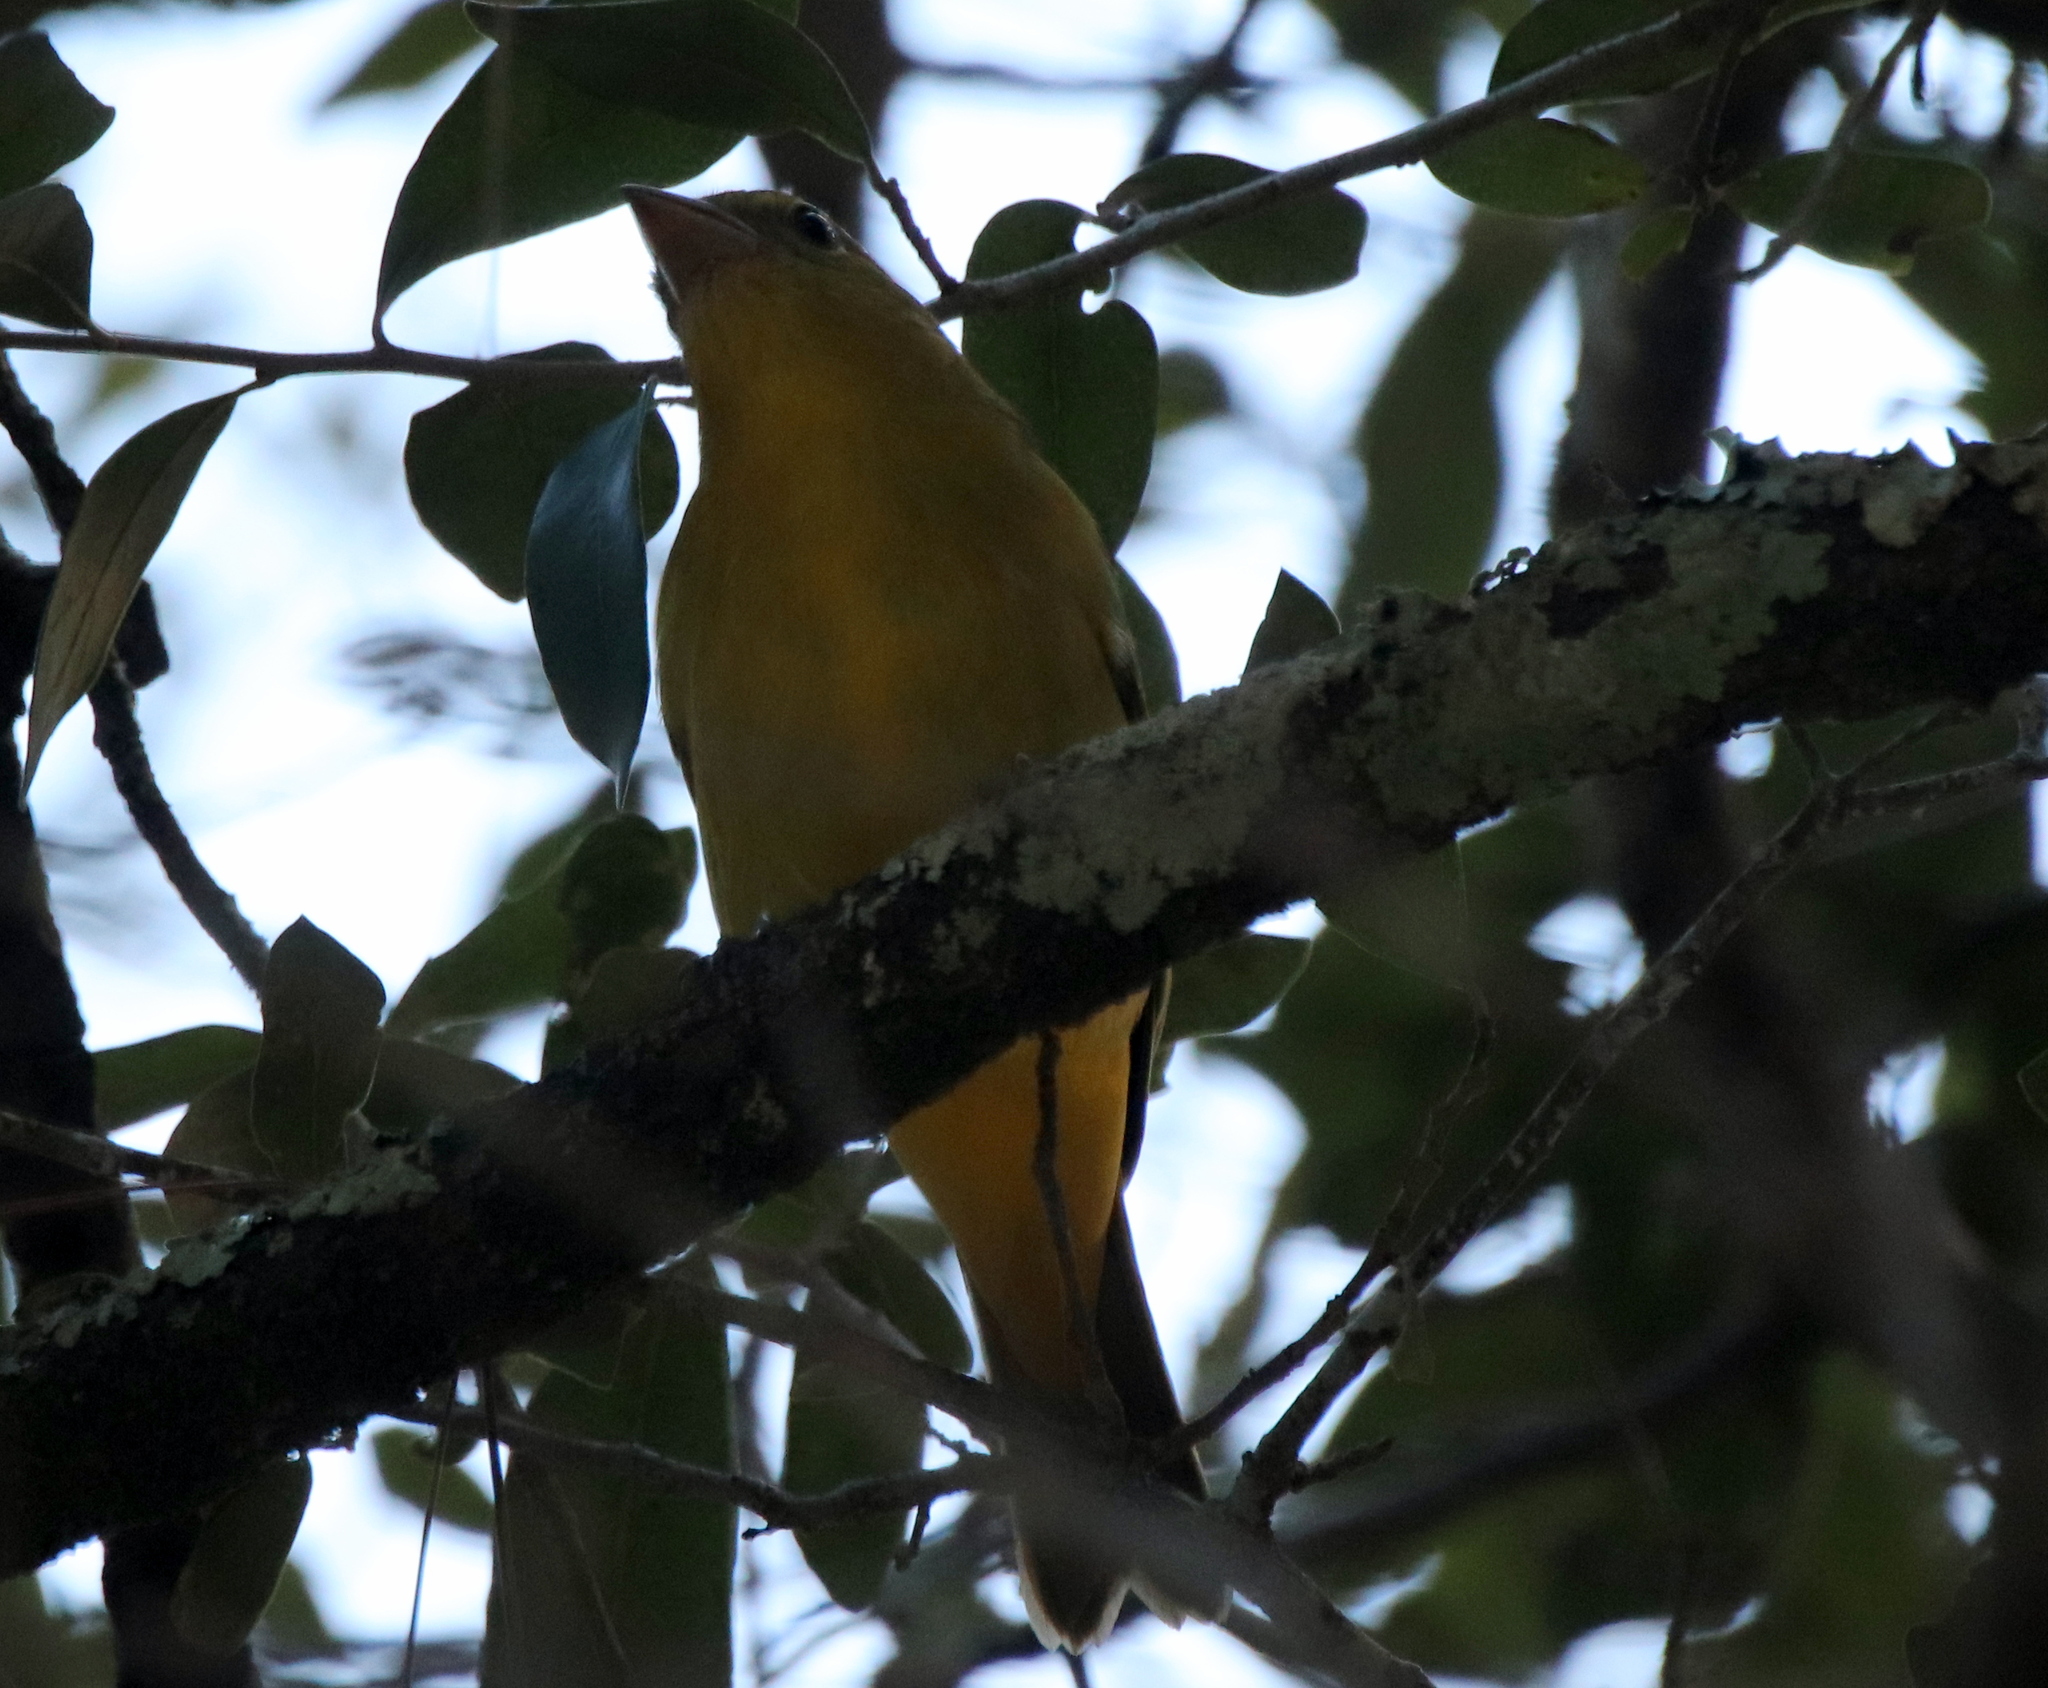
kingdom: Animalia
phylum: Chordata
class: Aves
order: Passeriformes
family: Cardinalidae
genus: Piranga
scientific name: Piranga rubra
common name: Summer tanager
